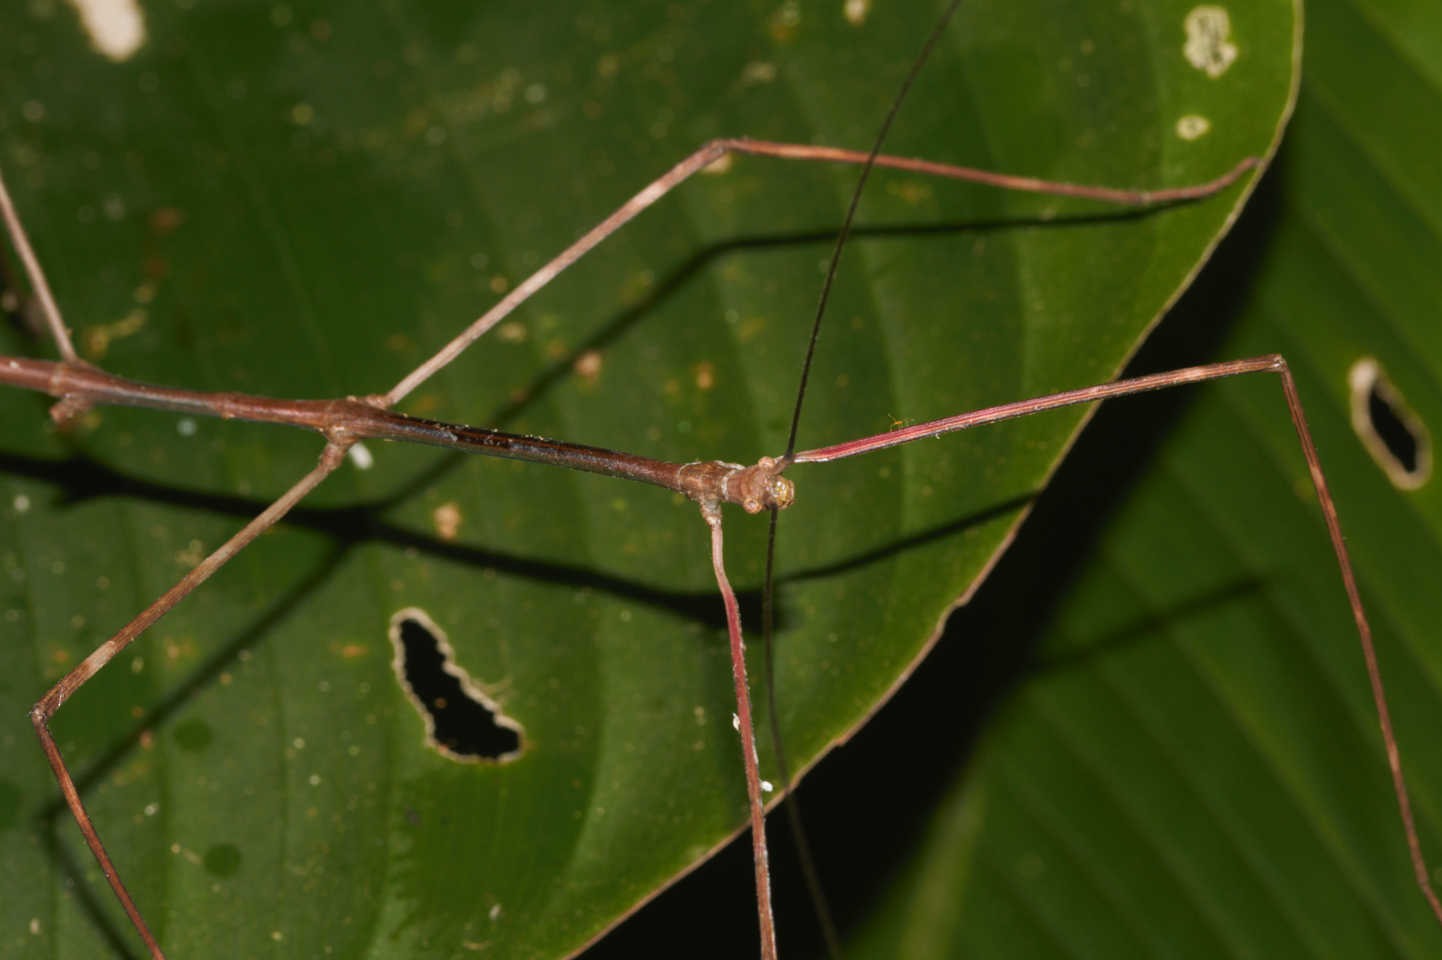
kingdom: Animalia
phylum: Arthropoda
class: Insecta
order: Phasmida
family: Diapheromeridae
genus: Phanocloidea
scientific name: Phanocloidea muricata
